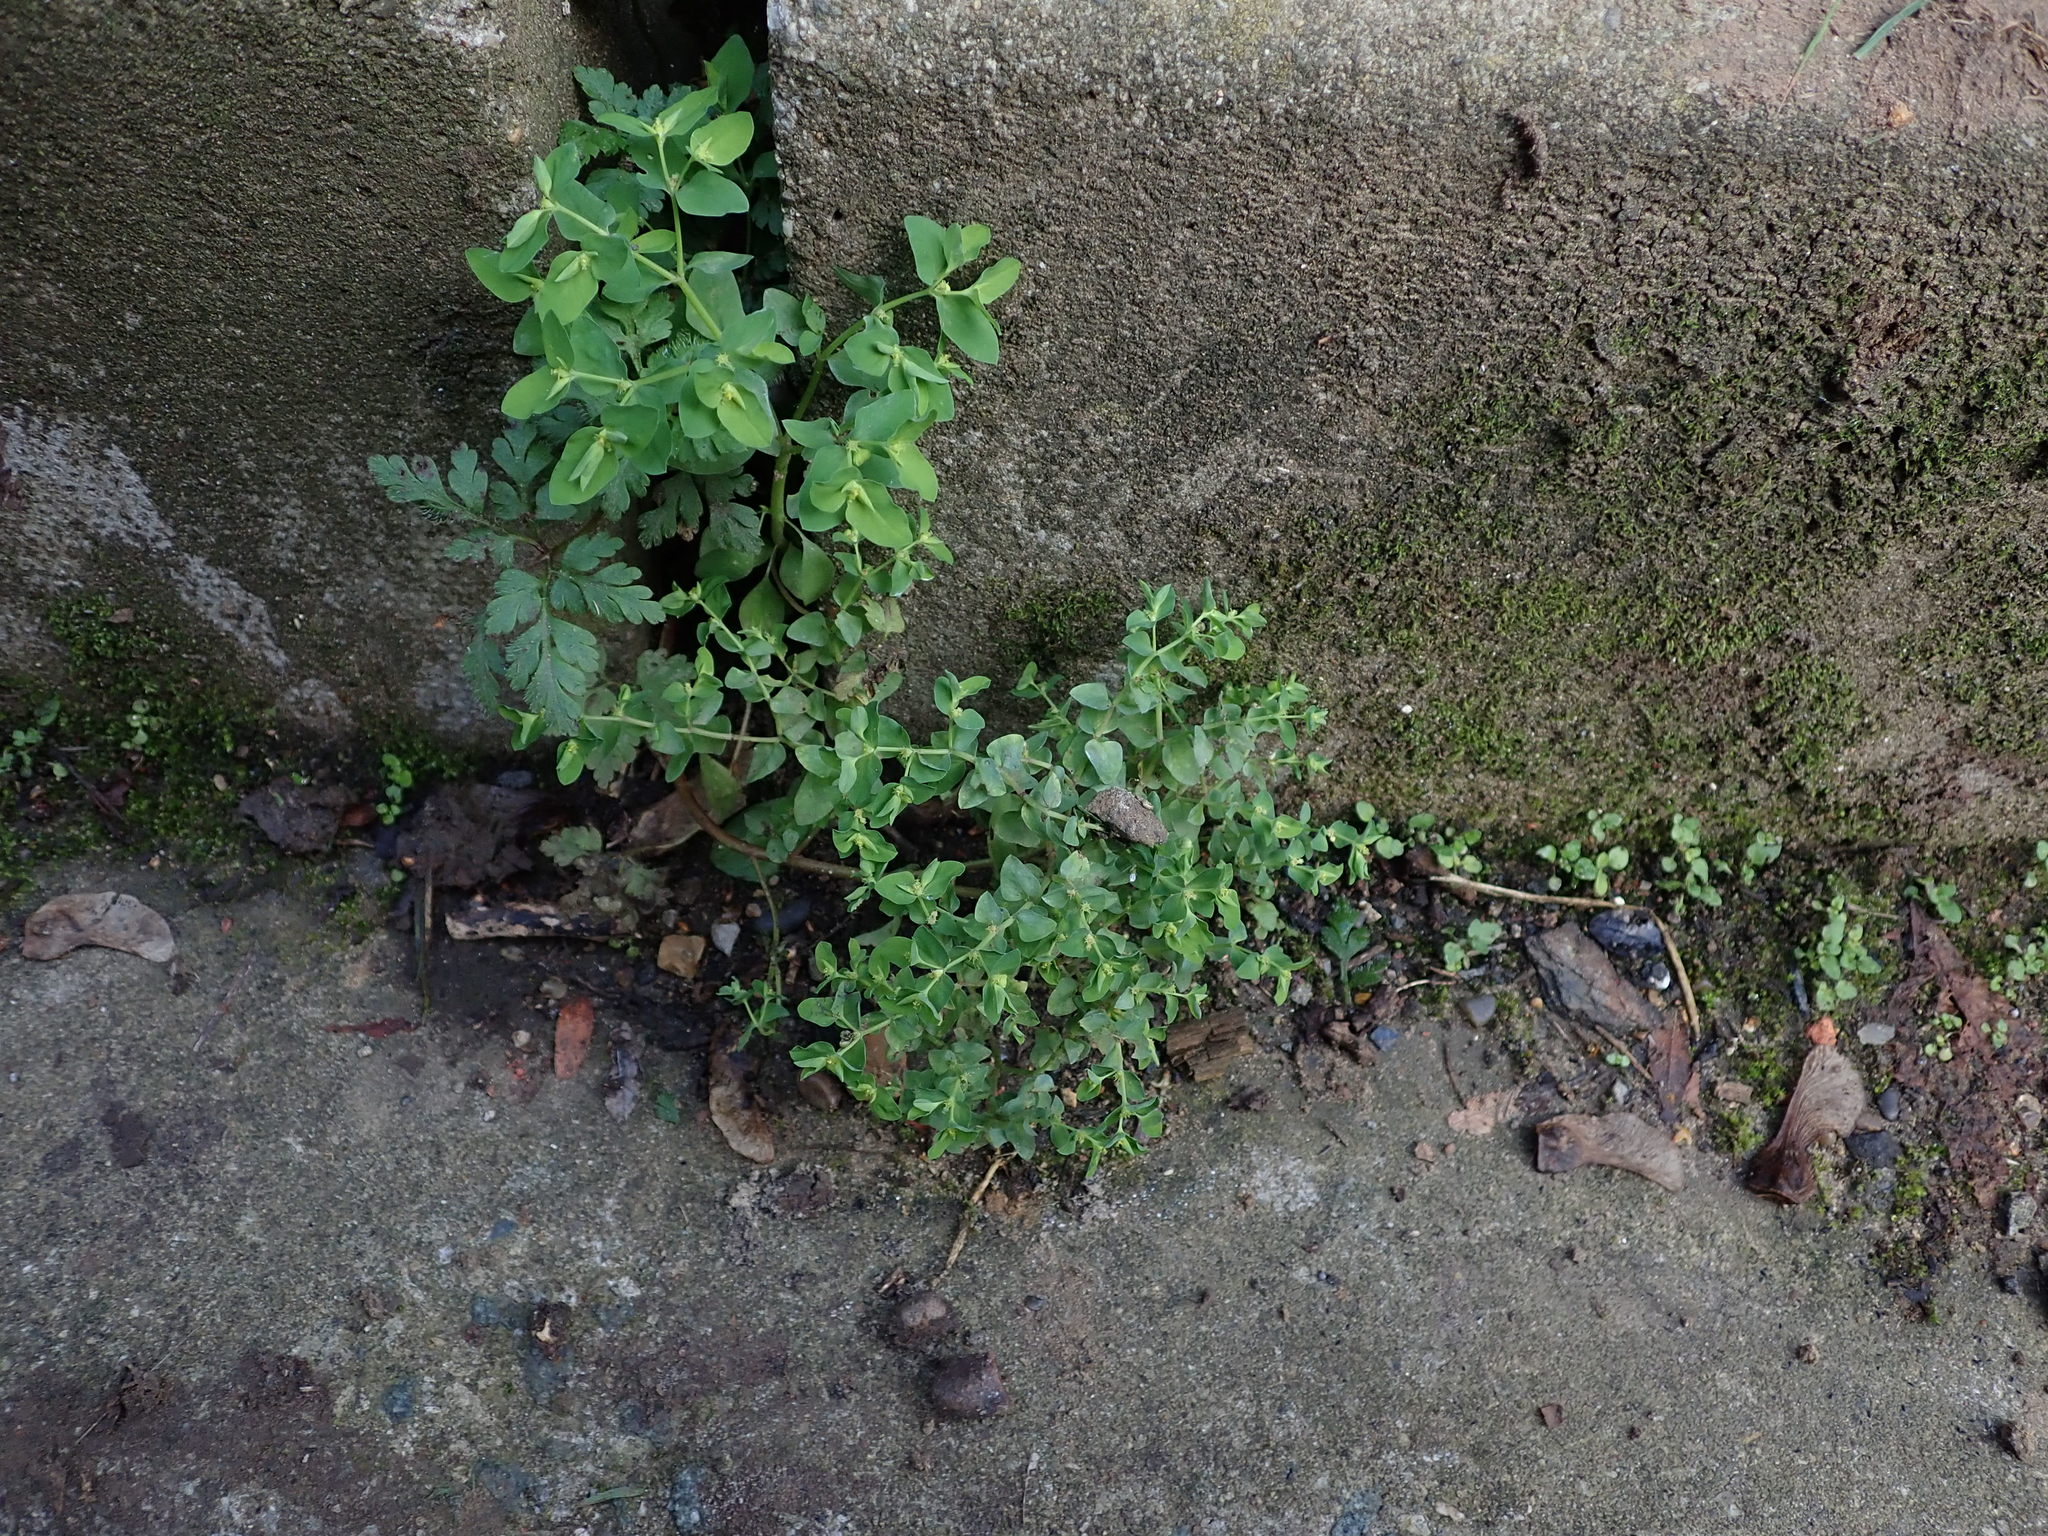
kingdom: Plantae
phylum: Tracheophyta
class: Magnoliopsida
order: Malpighiales
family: Euphorbiaceae
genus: Euphorbia
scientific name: Euphorbia peplus
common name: Petty spurge
